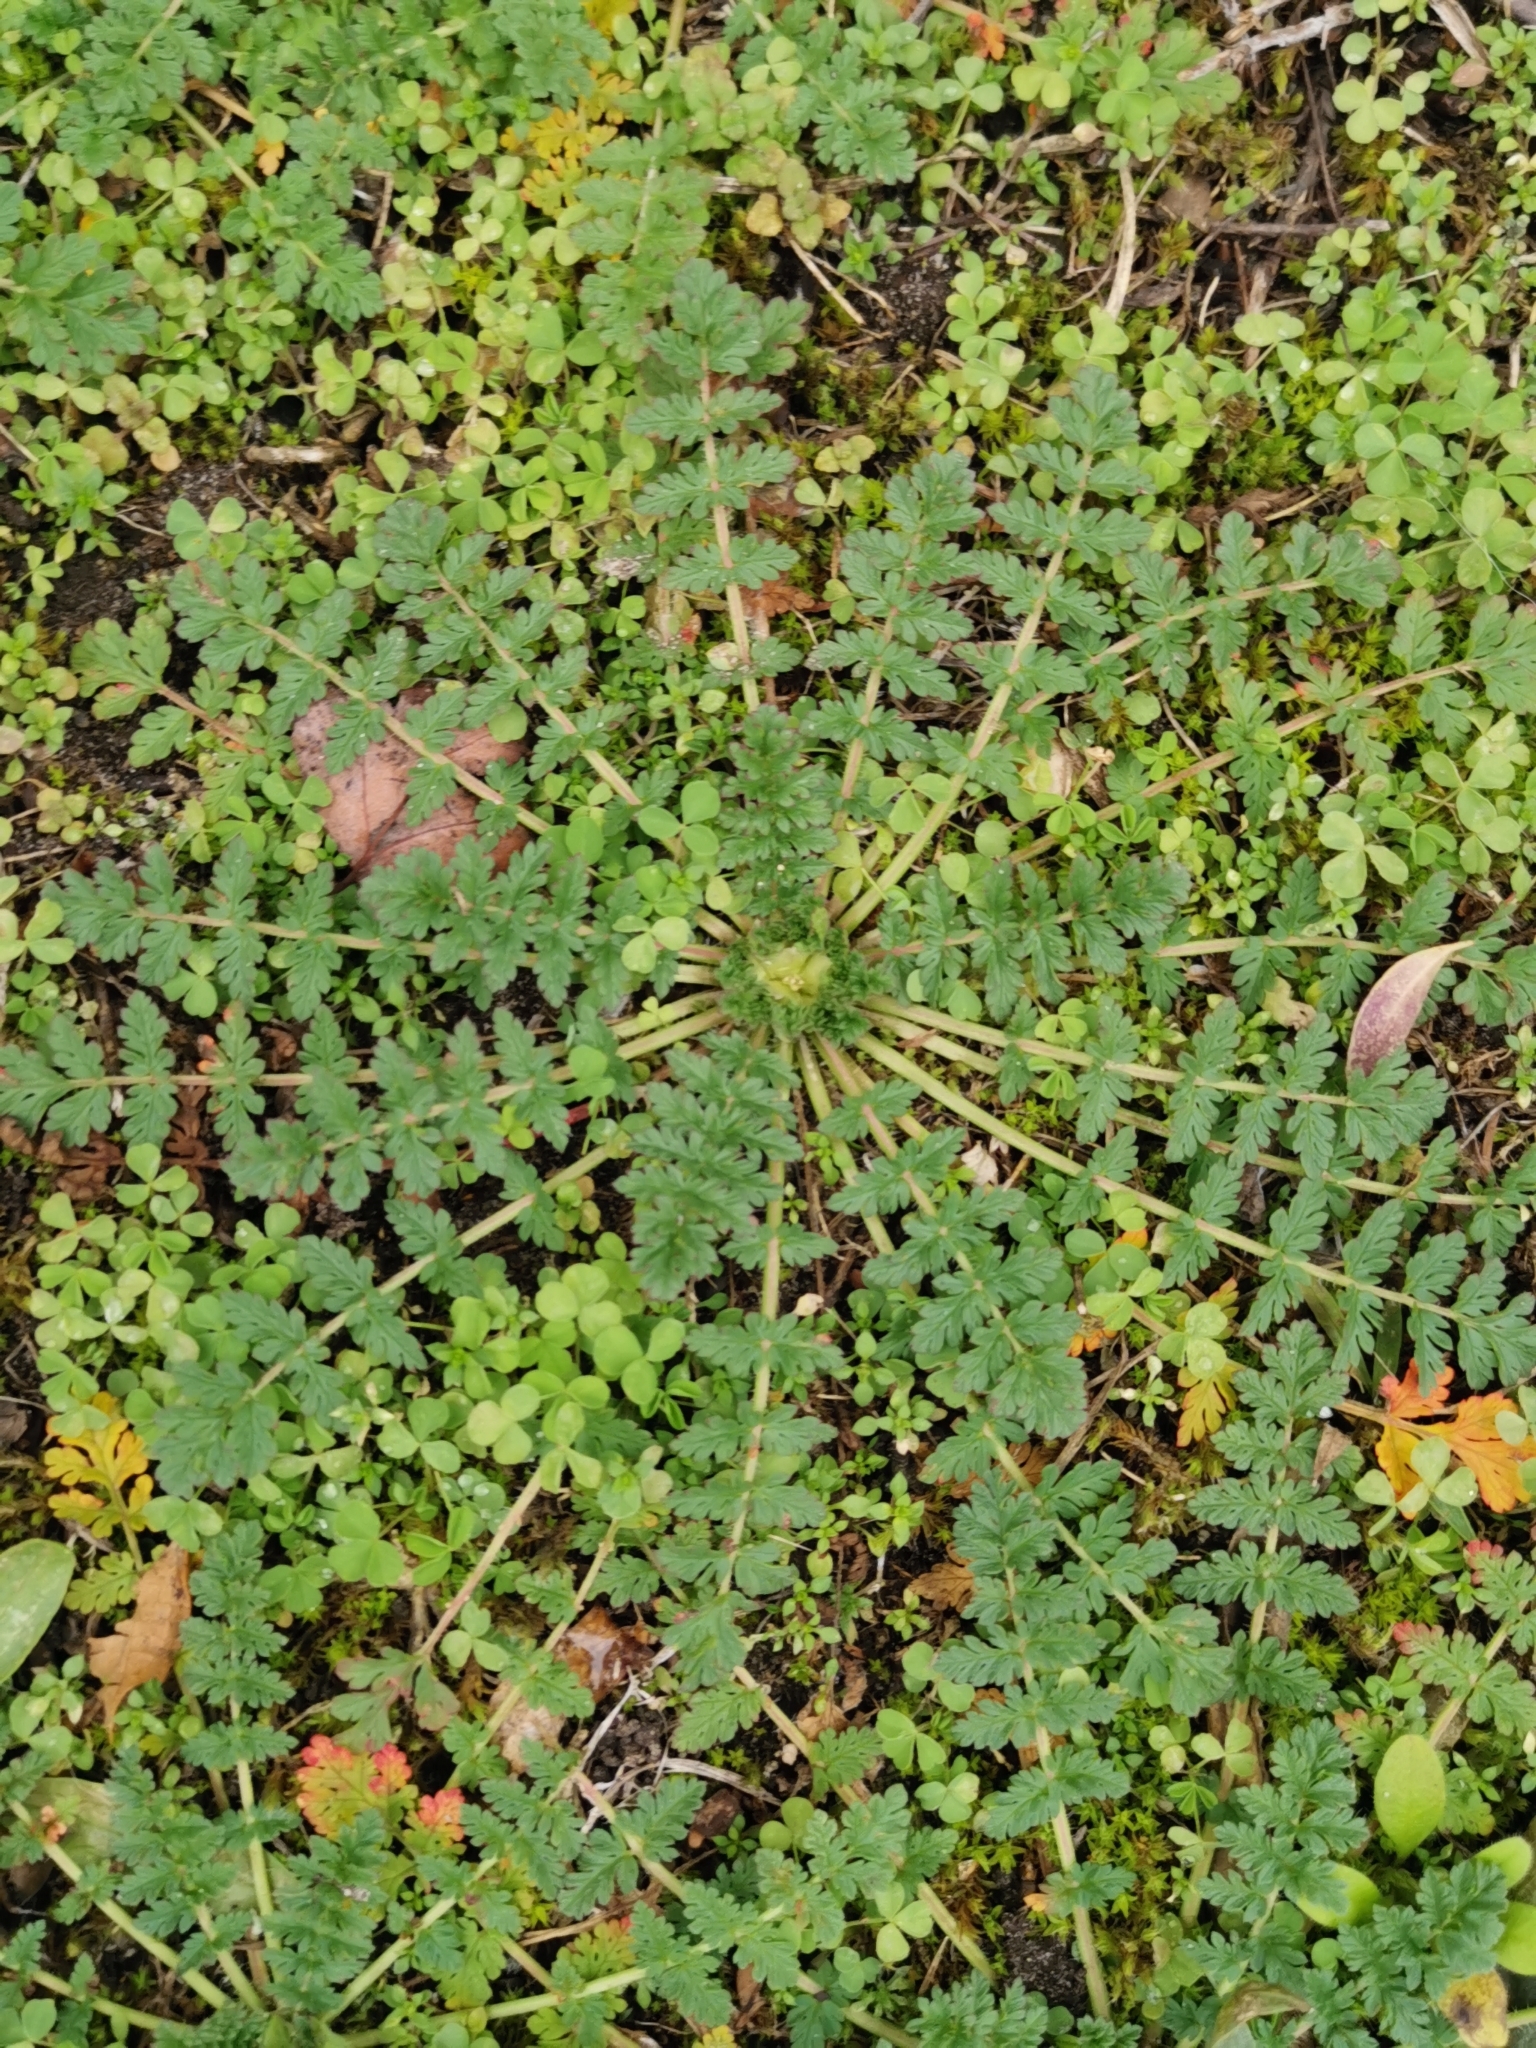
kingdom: Plantae
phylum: Tracheophyta
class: Magnoliopsida
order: Geraniales
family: Geraniaceae
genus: Erodium
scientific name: Erodium cicutarium
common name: Common stork's-bill
